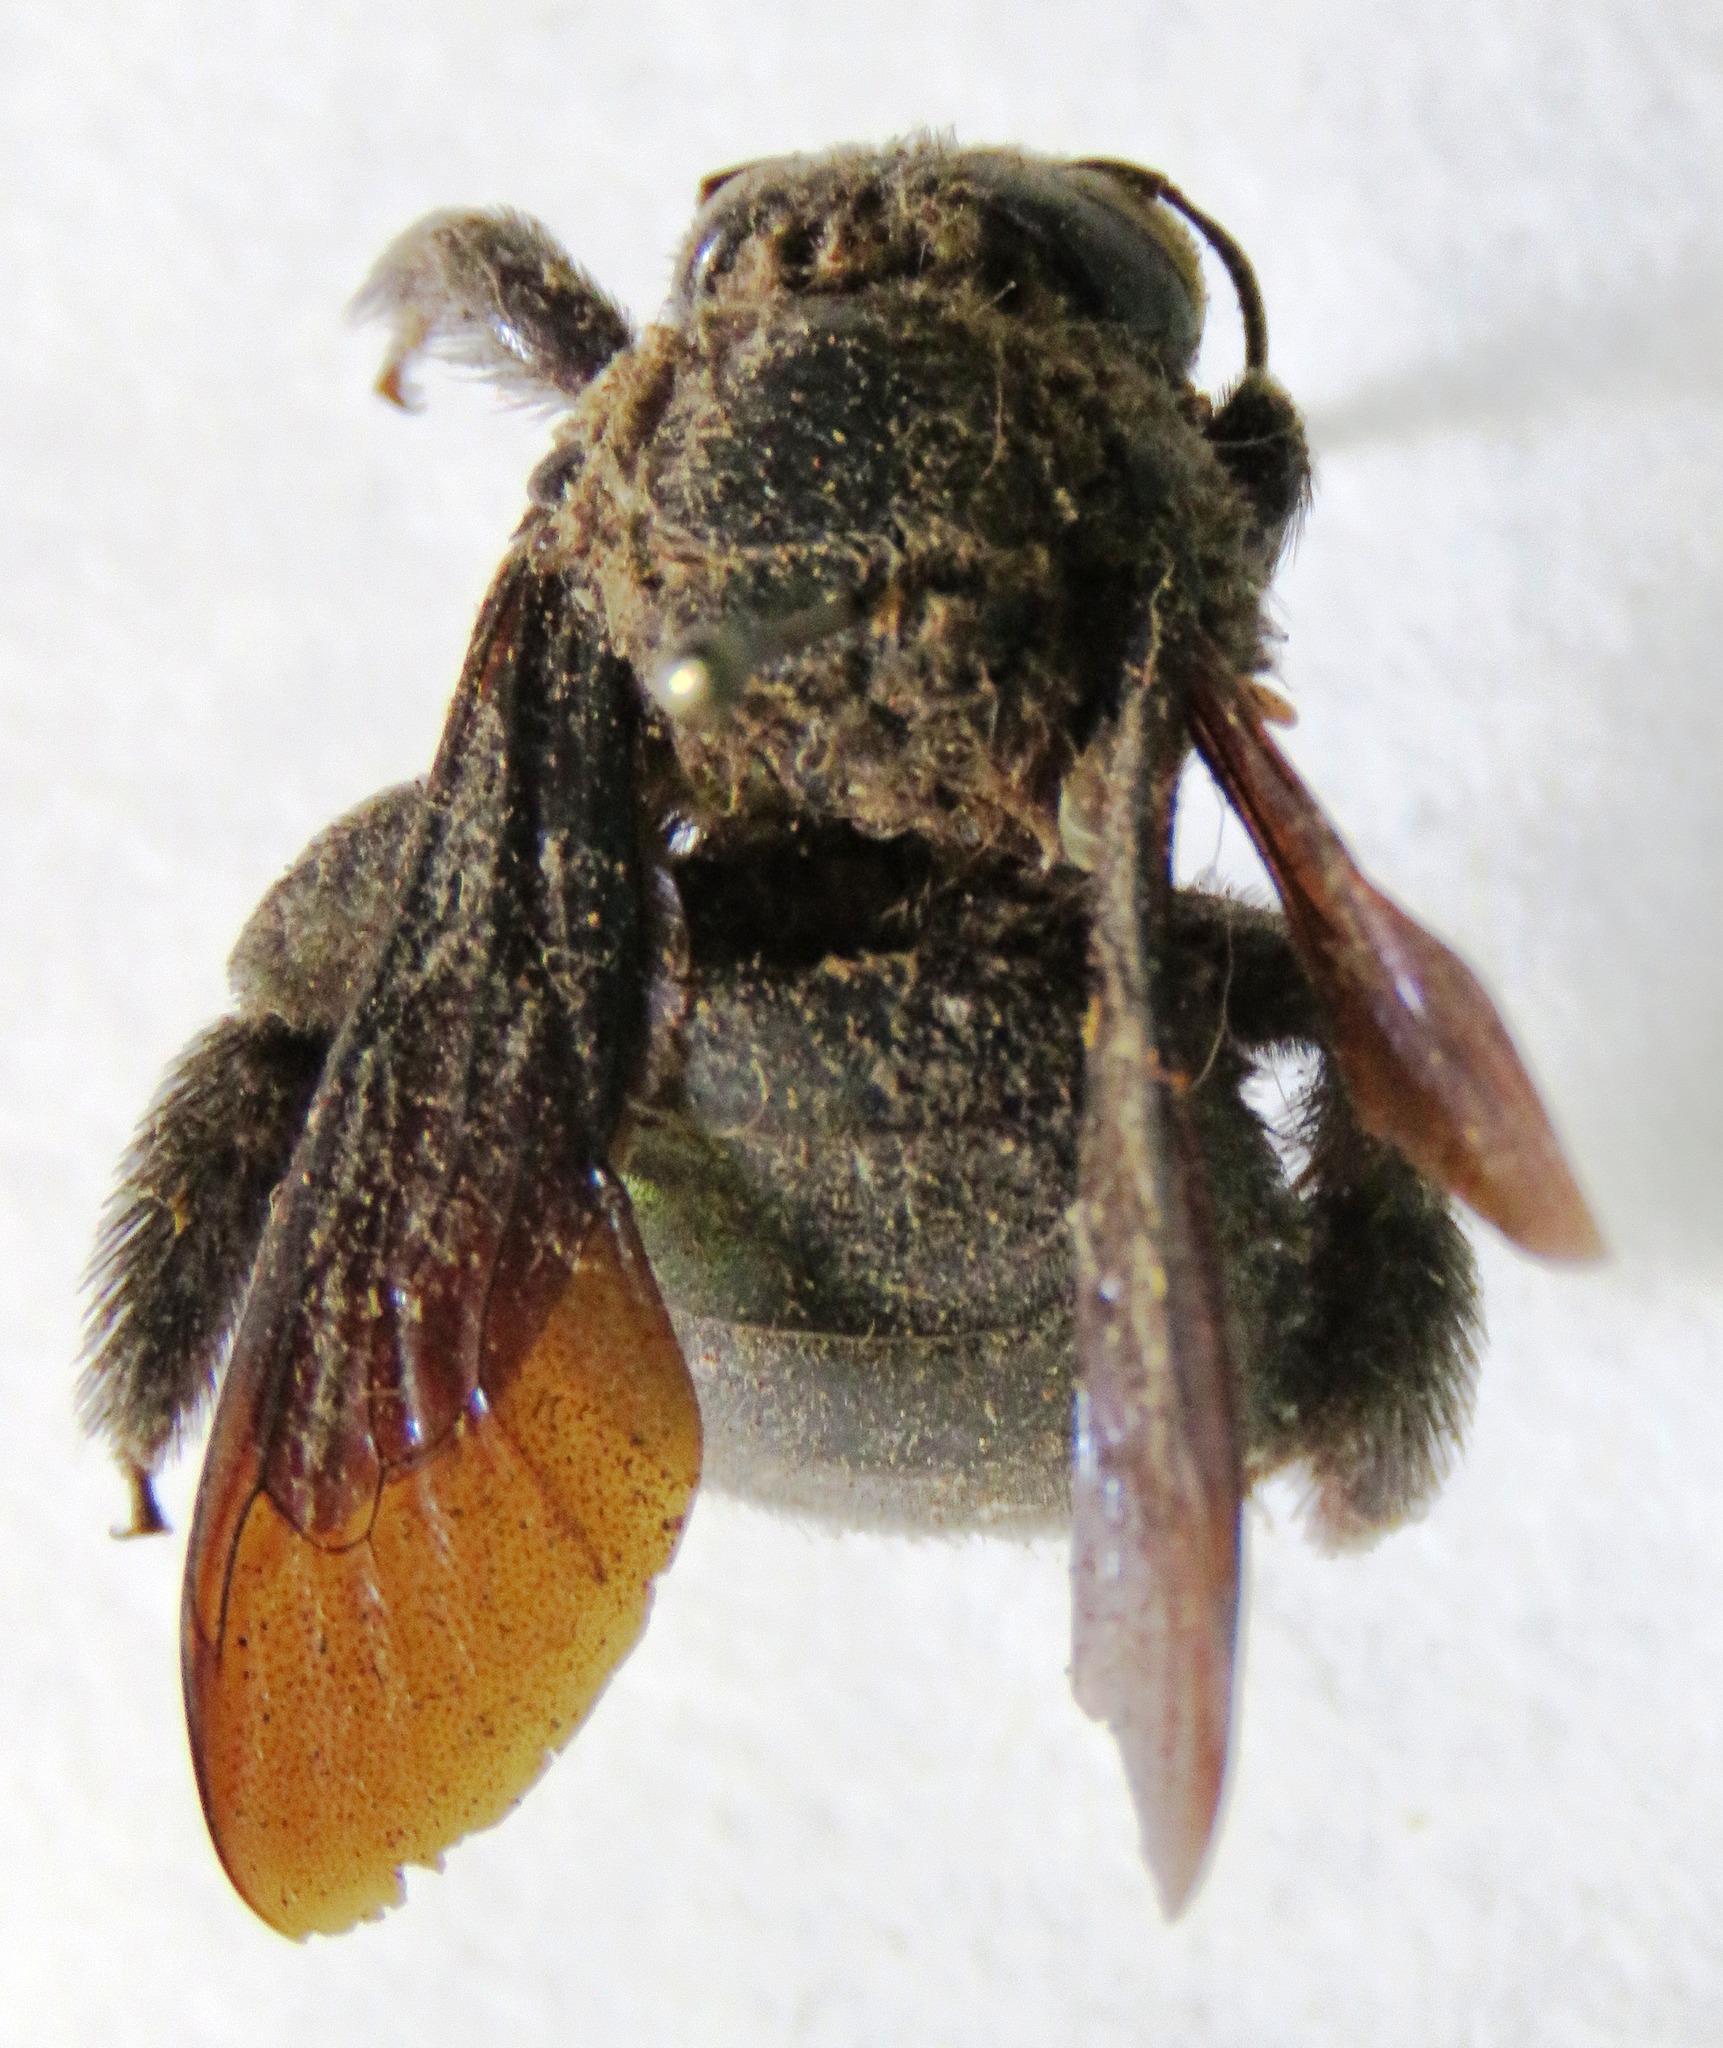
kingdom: Animalia
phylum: Arthropoda
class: Insecta
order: Hymenoptera
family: Apidae
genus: Xylocopa
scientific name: Xylocopa gualanensis
